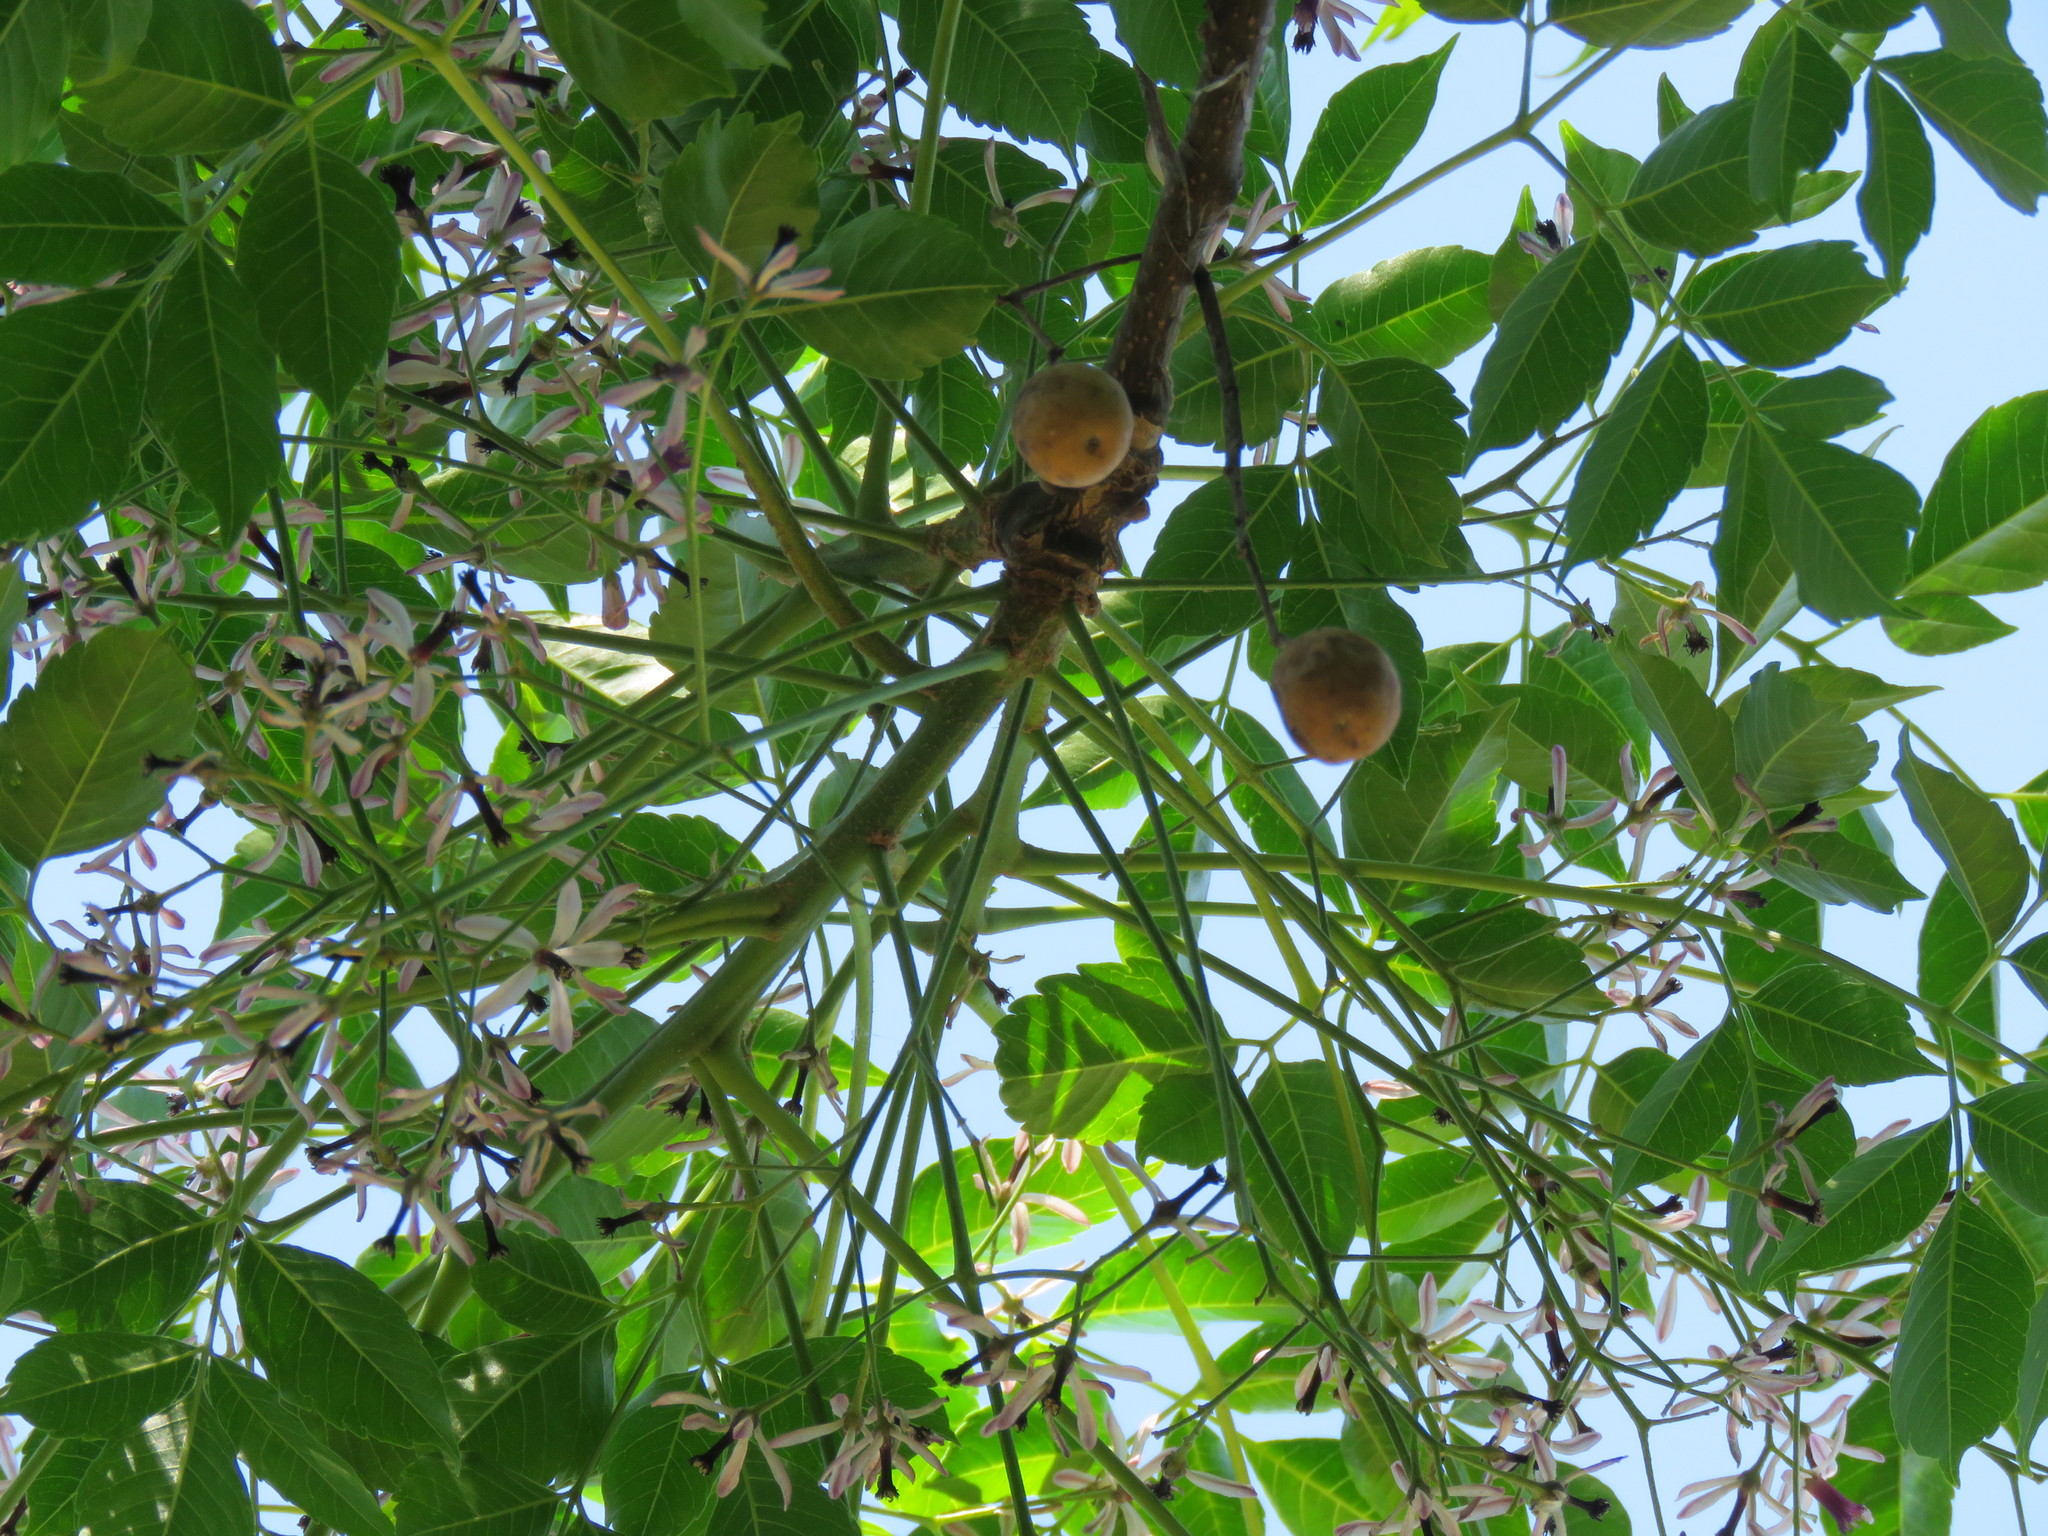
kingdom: Plantae
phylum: Tracheophyta
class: Magnoliopsida
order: Sapindales
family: Meliaceae
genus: Melia
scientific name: Melia azedarach
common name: Chinaberrytree
